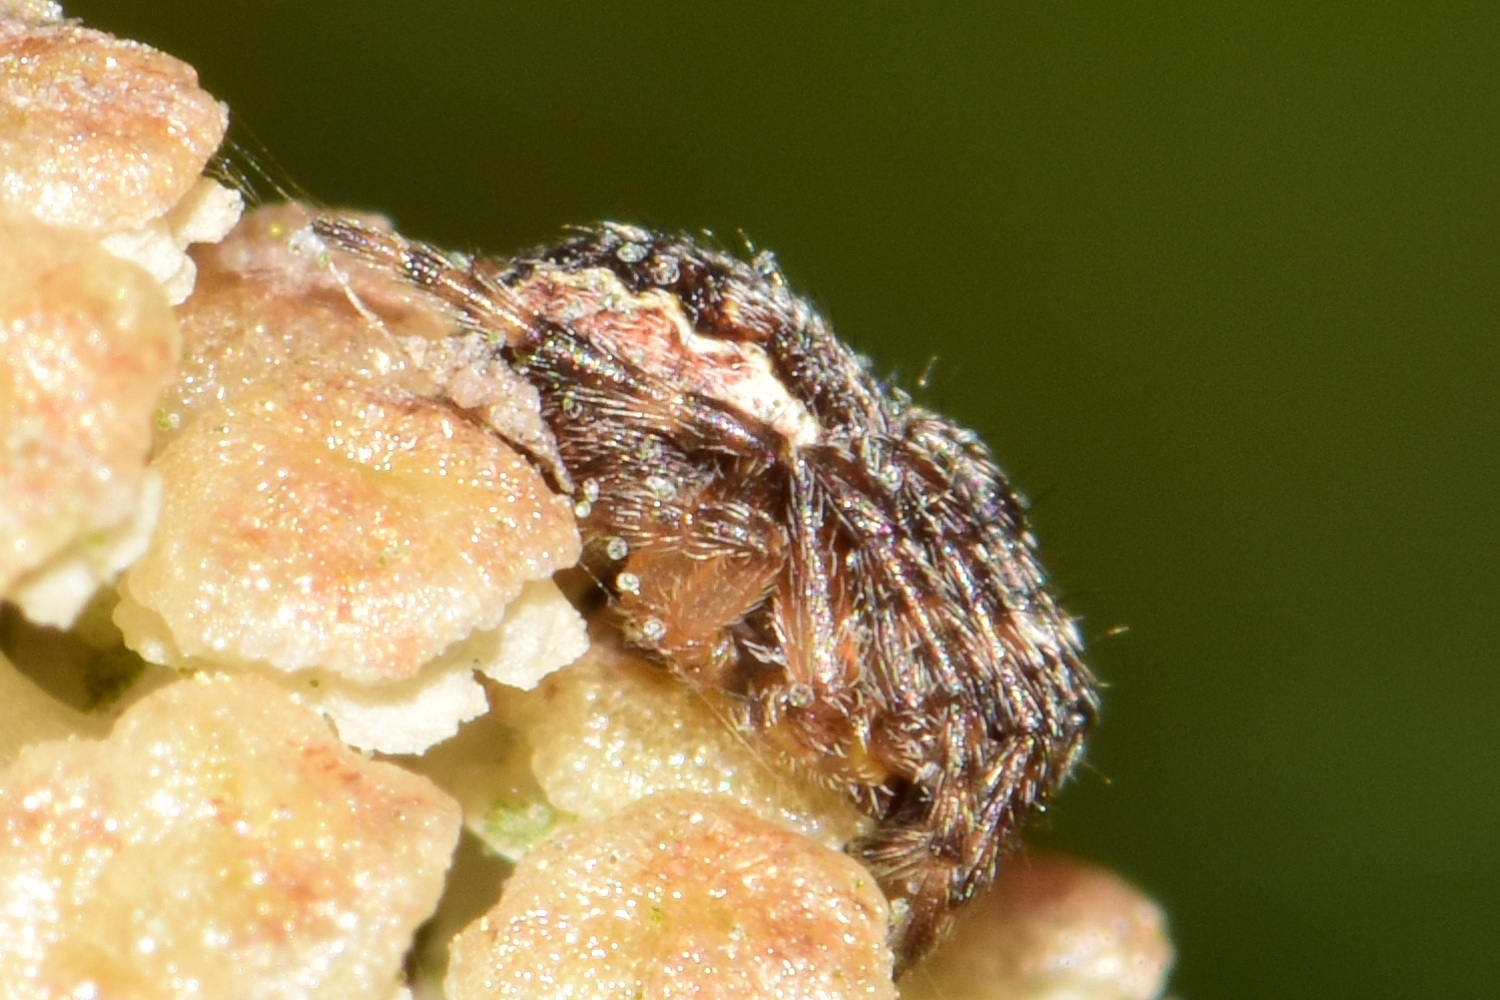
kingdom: Animalia
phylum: Arthropoda
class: Arachnida
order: Araneae
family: Araneidae
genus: Larinioides
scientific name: Larinioides patagiatus
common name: Ornamental orbweaver
